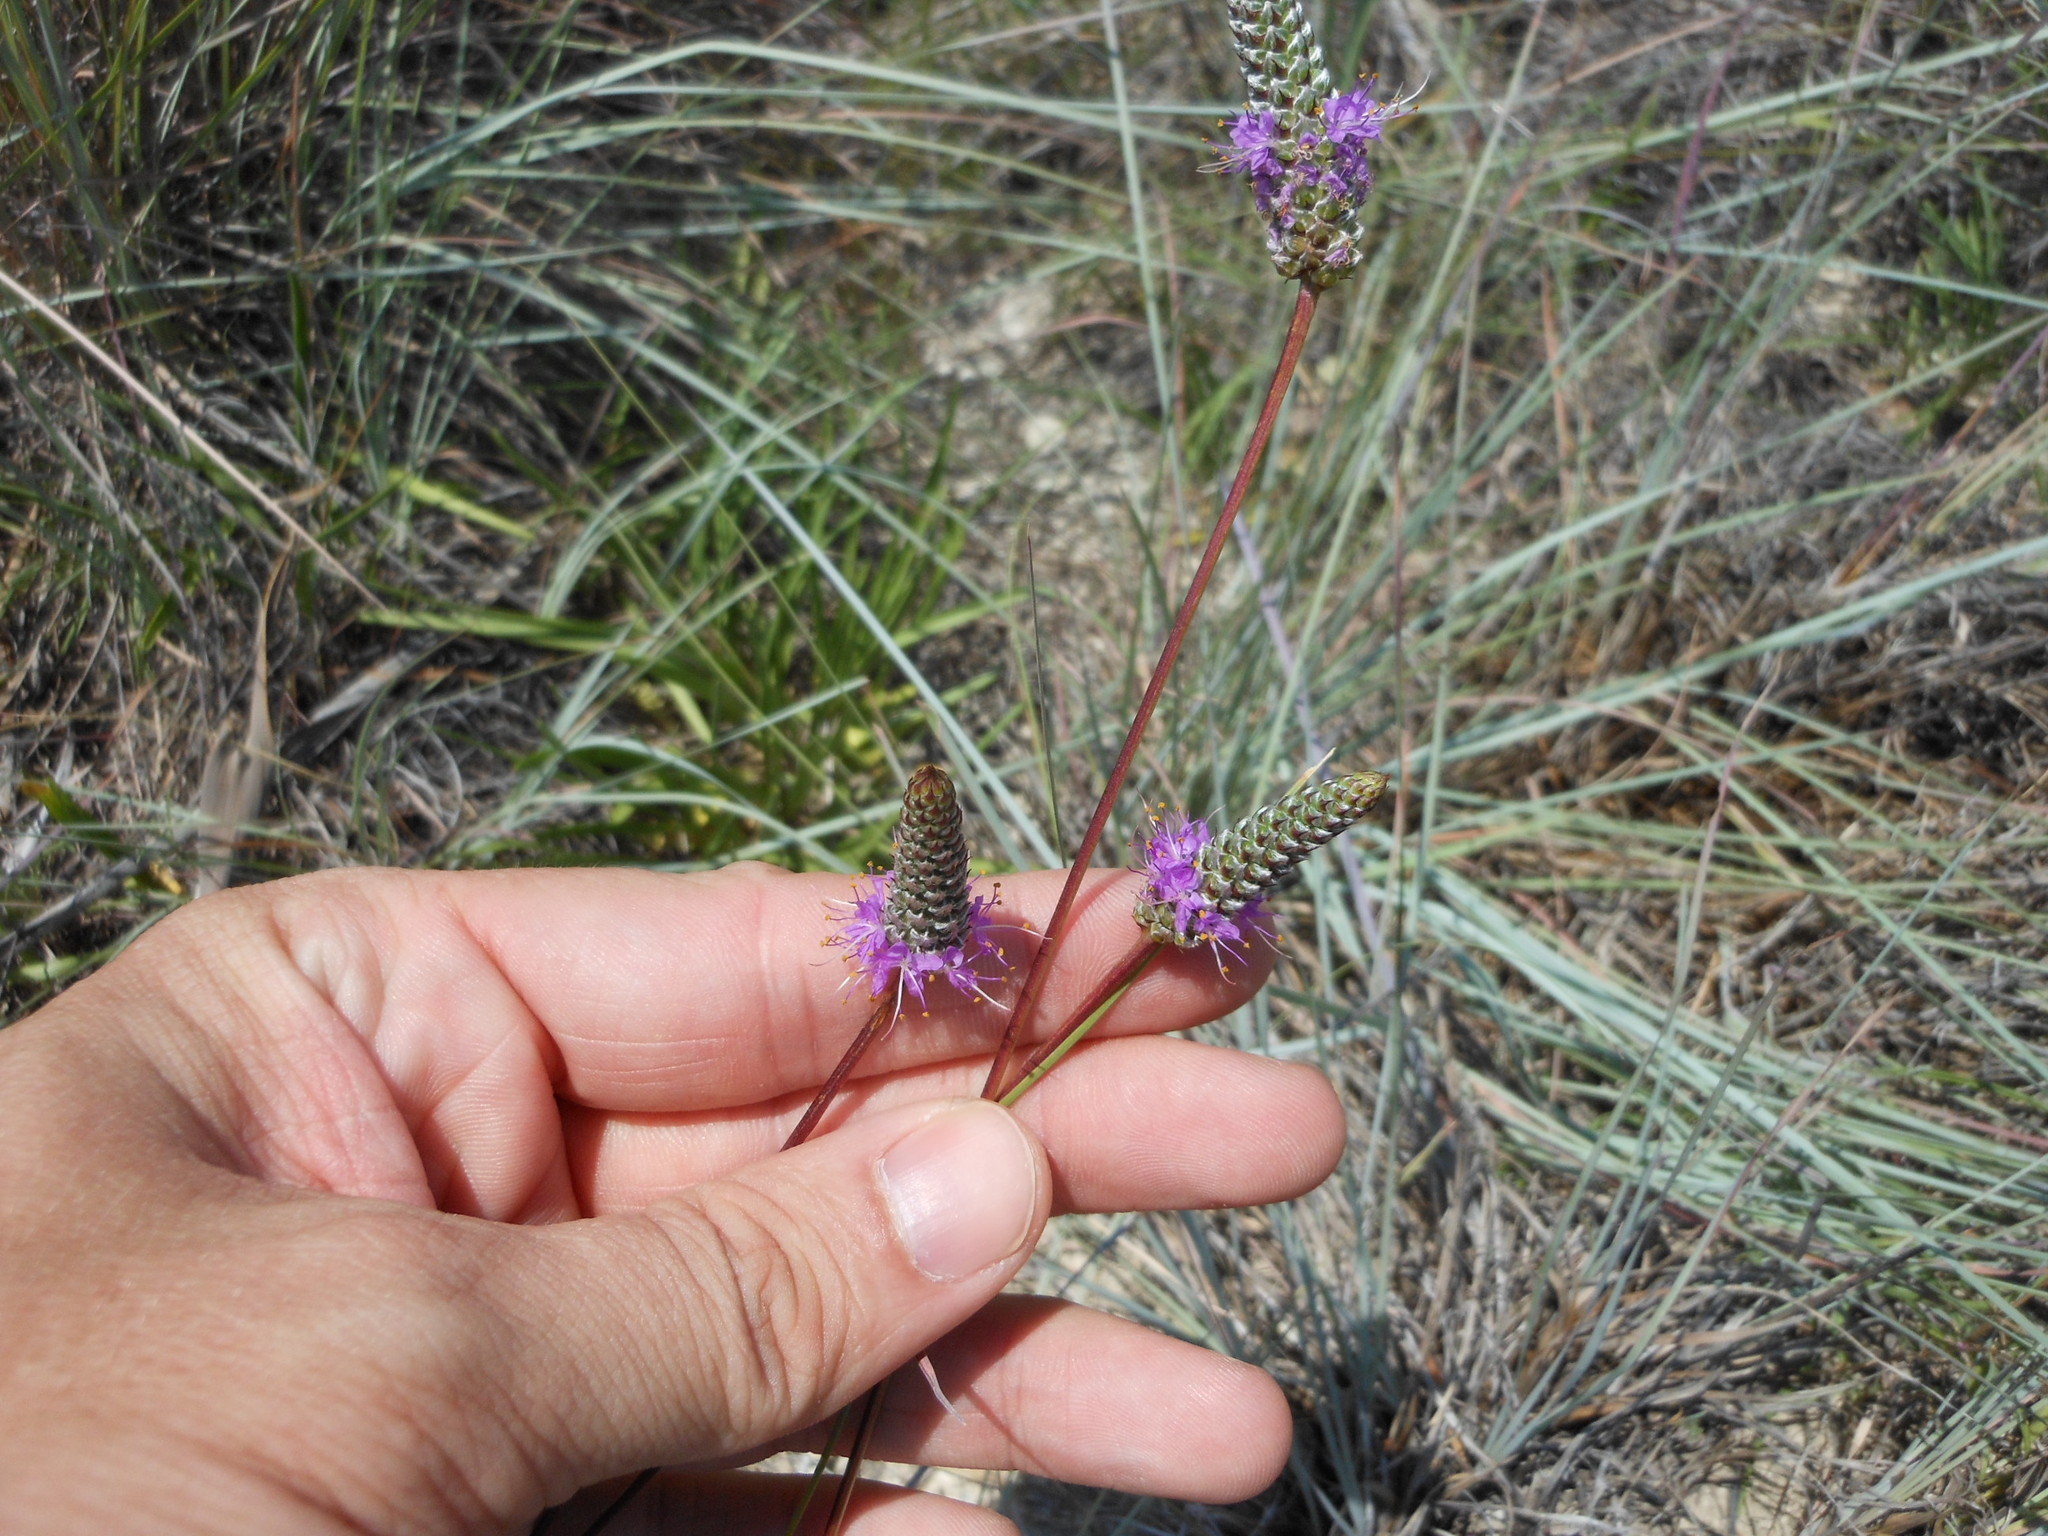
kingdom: Plantae
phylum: Tracheophyta
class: Magnoliopsida
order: Fabales
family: Fabaceae
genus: Dalea
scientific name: Dalea tenuis
